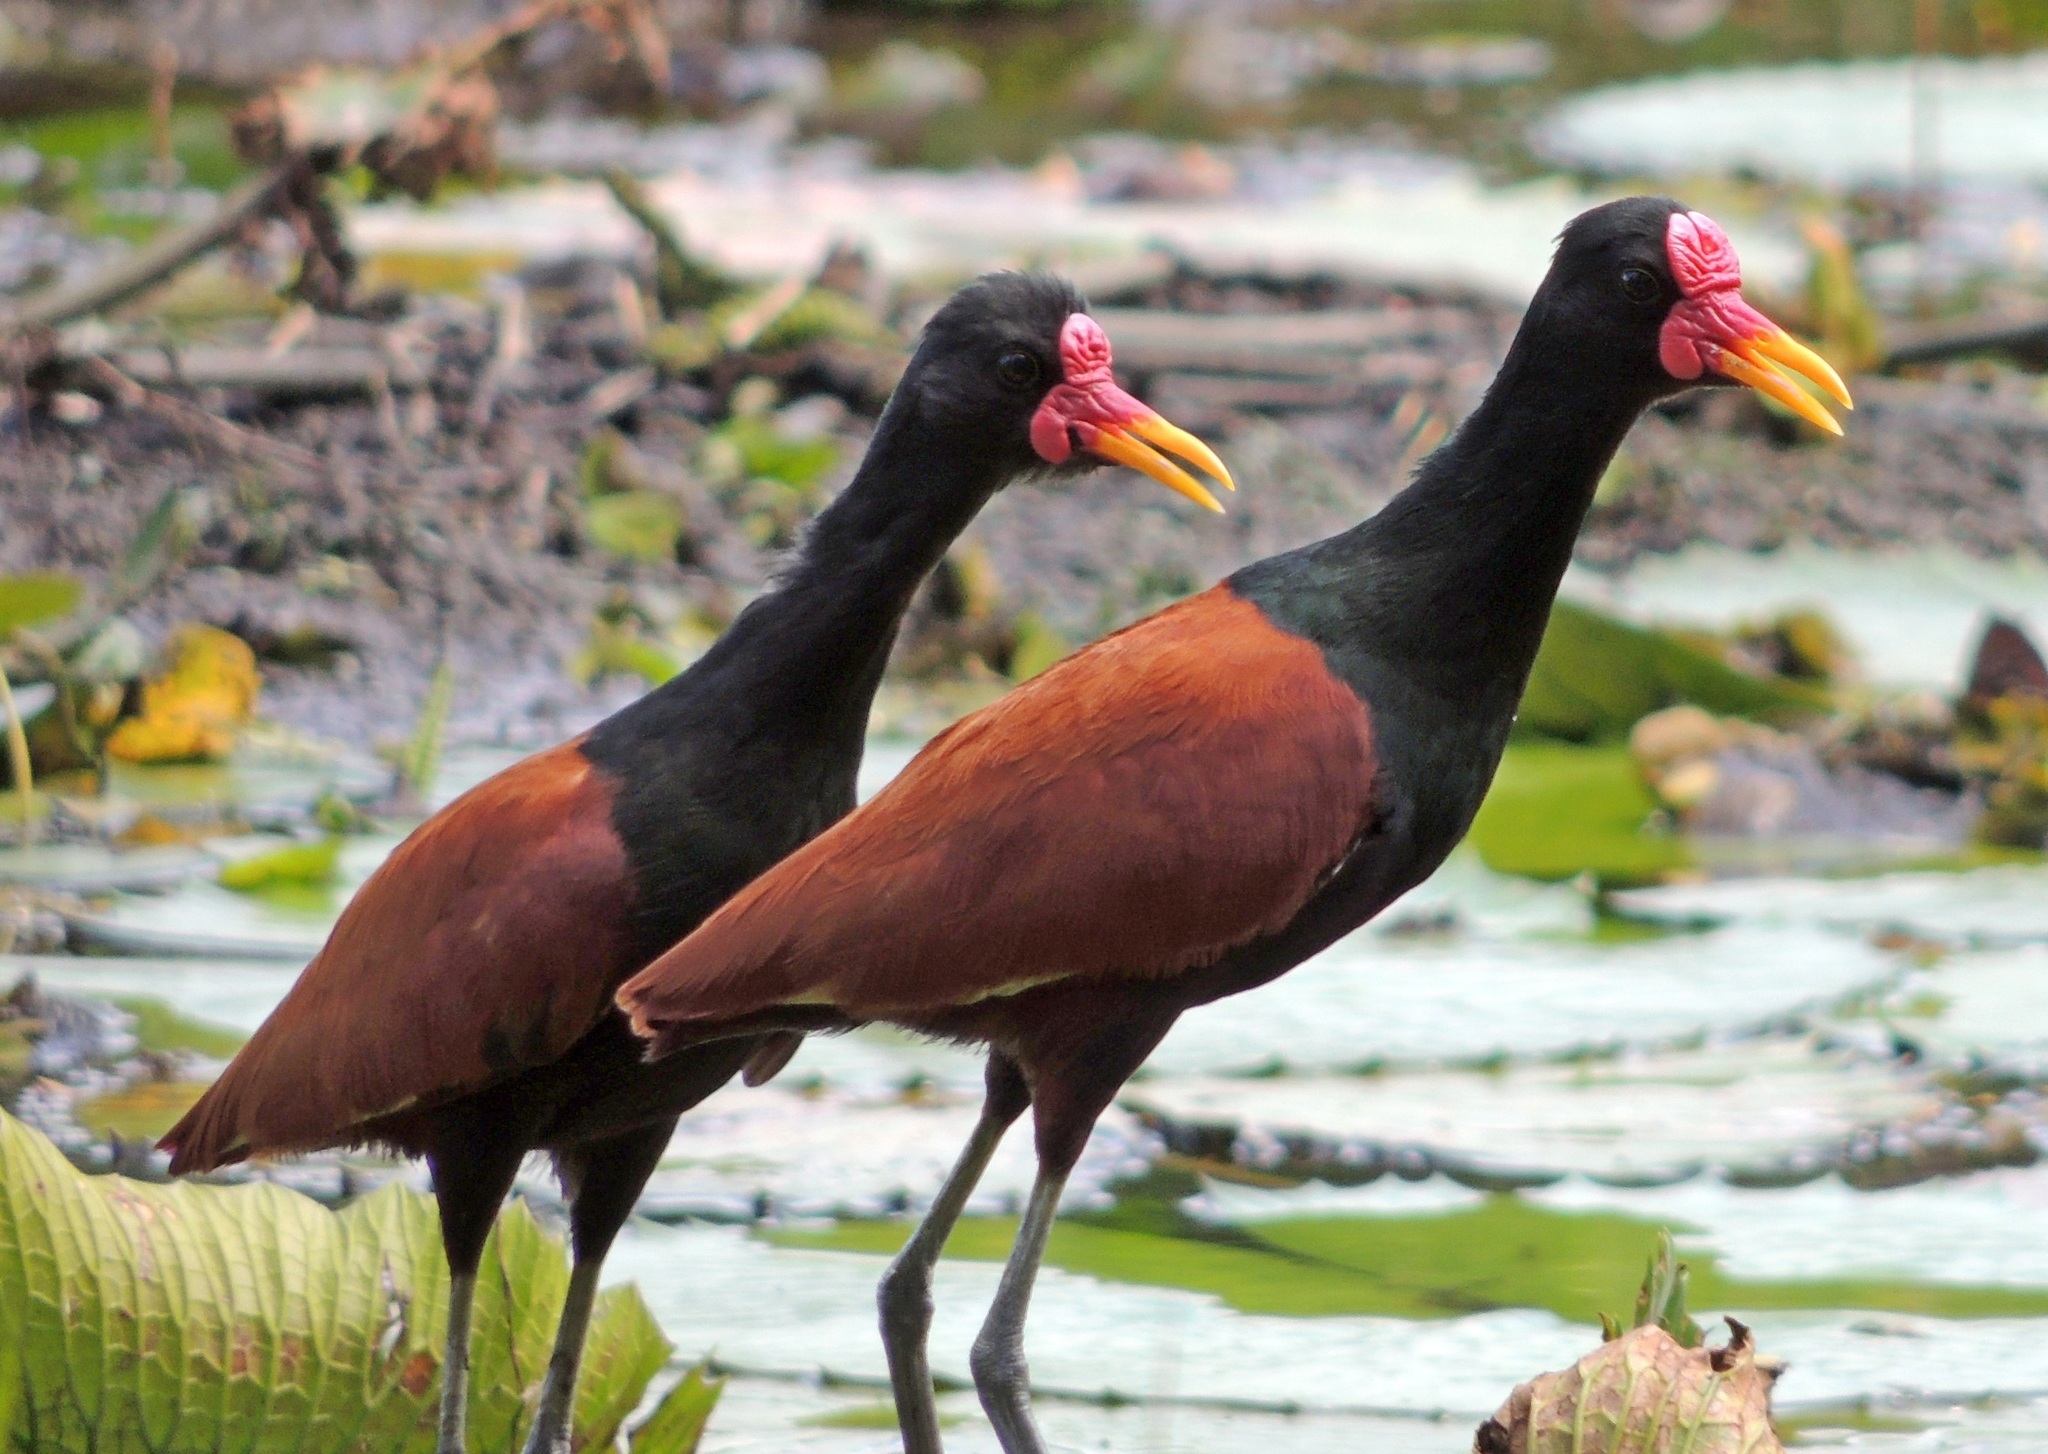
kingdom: Animalia
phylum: Chordata
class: Aves
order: Charadriiformes
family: Jacanidae
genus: Jacana
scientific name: Jacana jacana
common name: Wattled jacana
